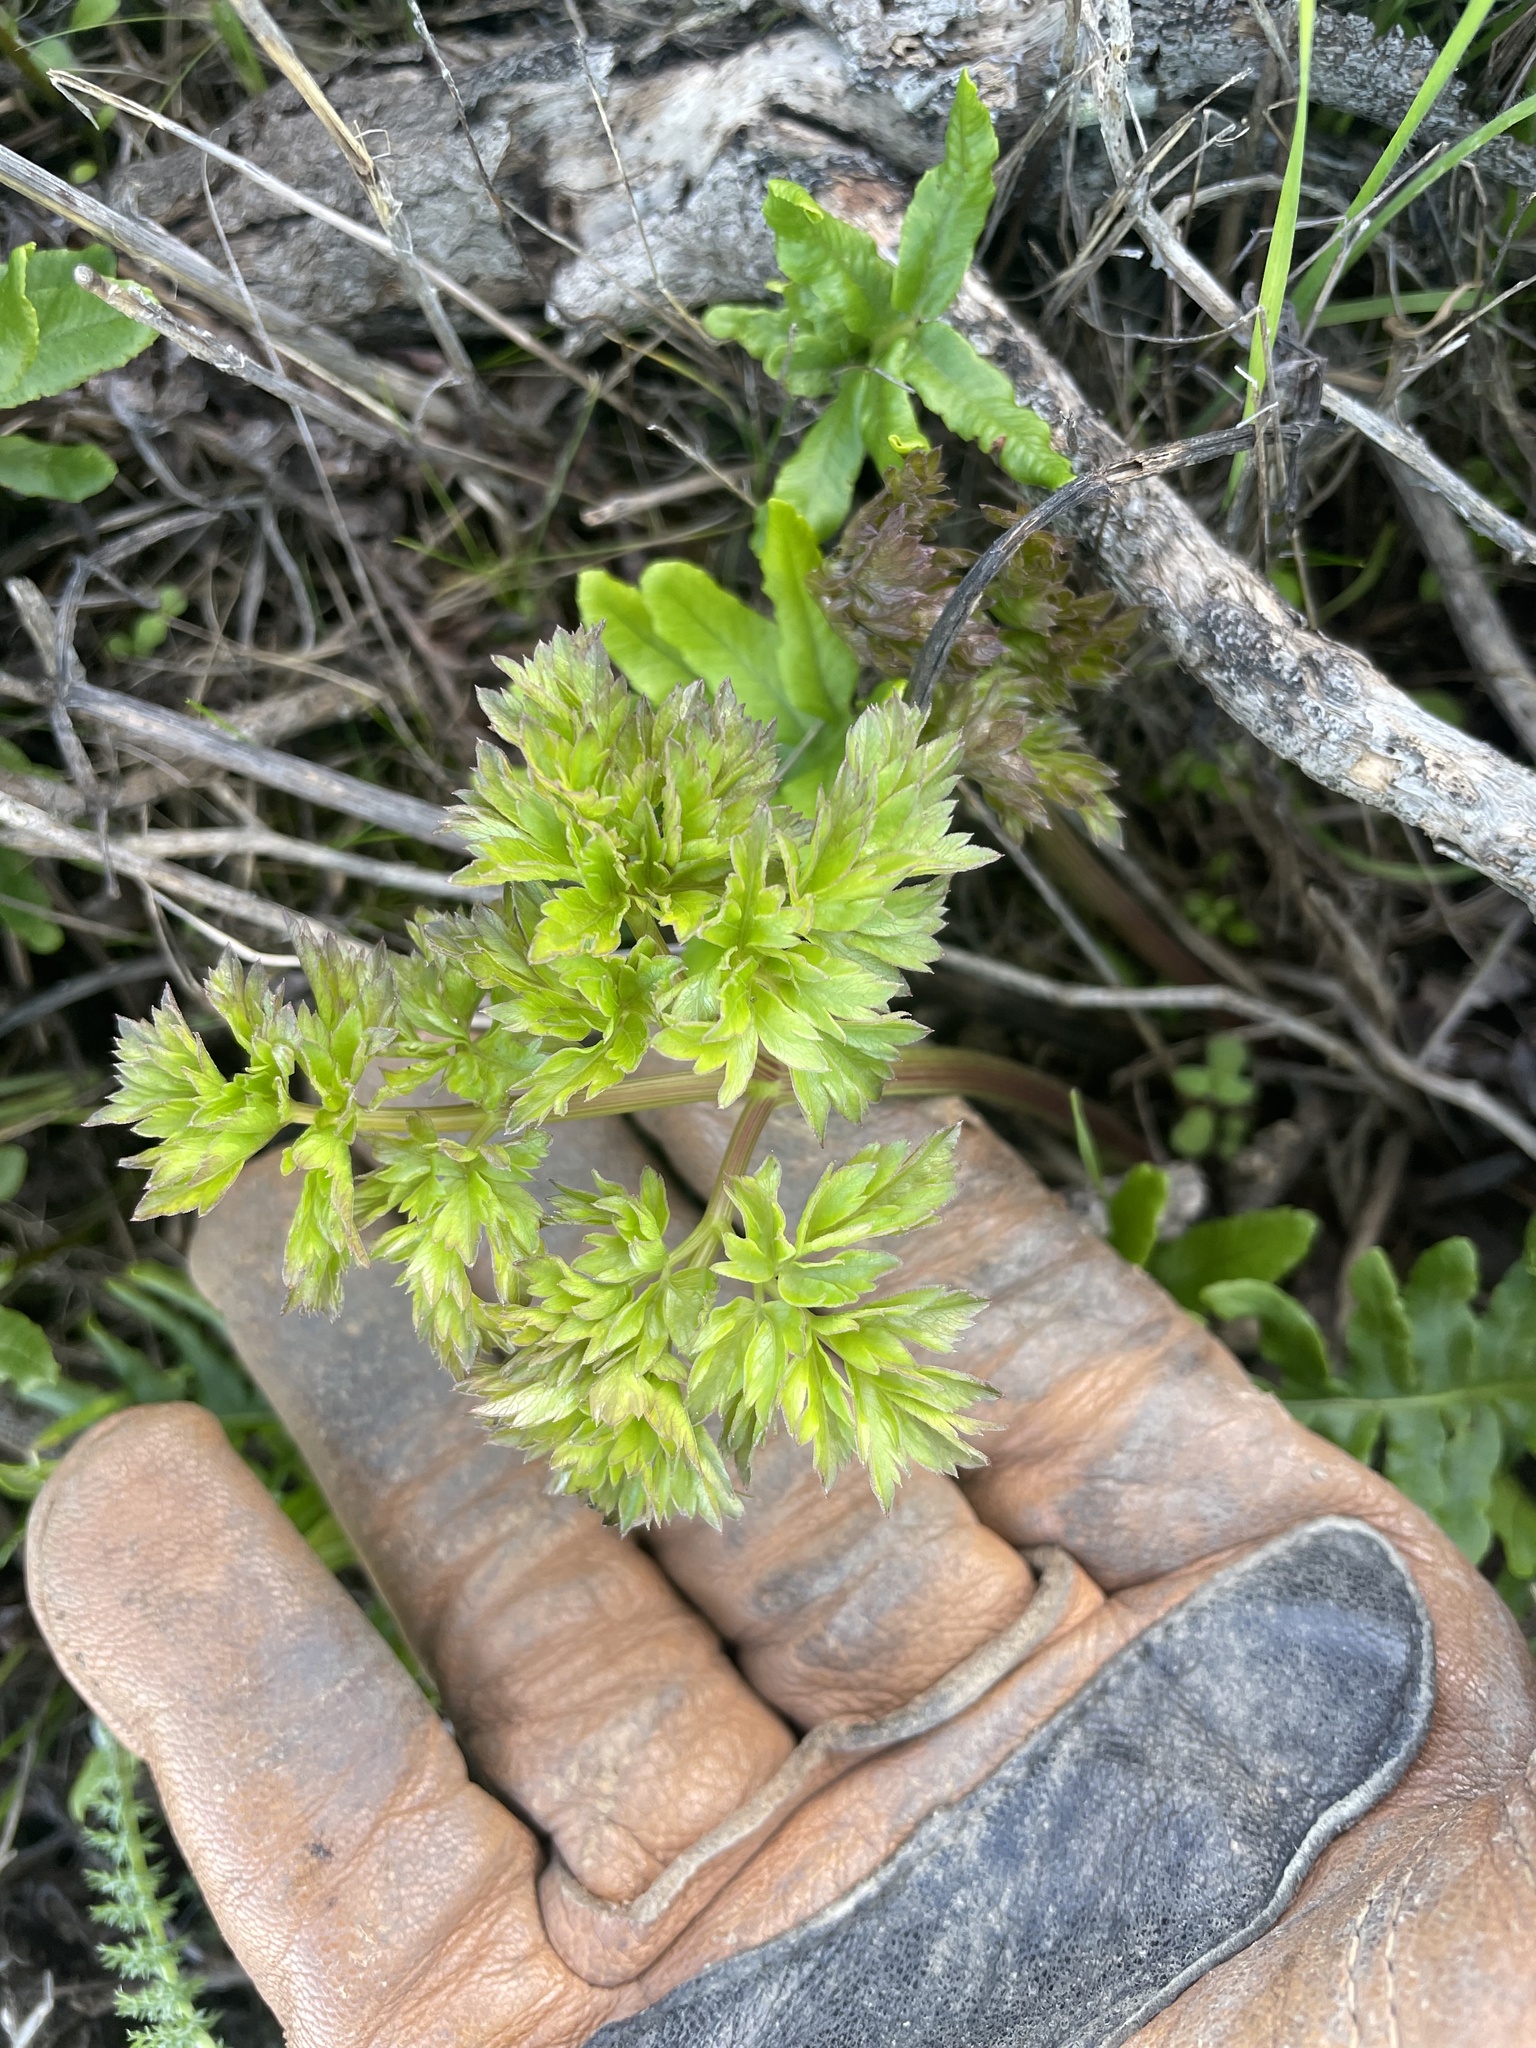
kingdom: Plantae
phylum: Tracheophyta
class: Magnoliopsida
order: Apiales
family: Apiaceae
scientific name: Apiaceae
